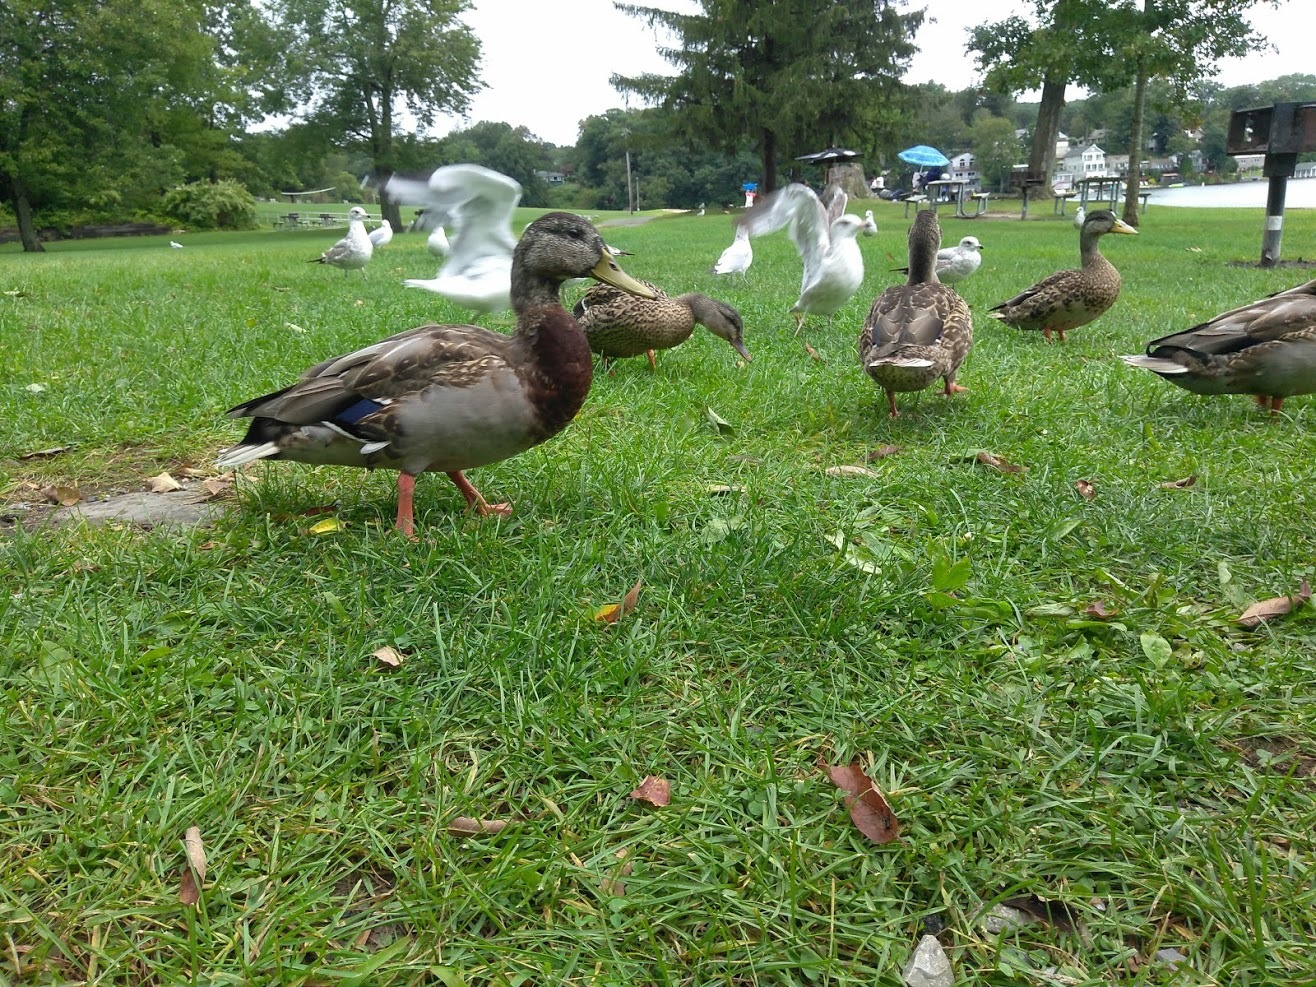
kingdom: Animalia
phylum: Chordata
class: Aves
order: Anseriformes
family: Anatidae
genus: Anas
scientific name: Anas platyrhynchos
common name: Mallard
